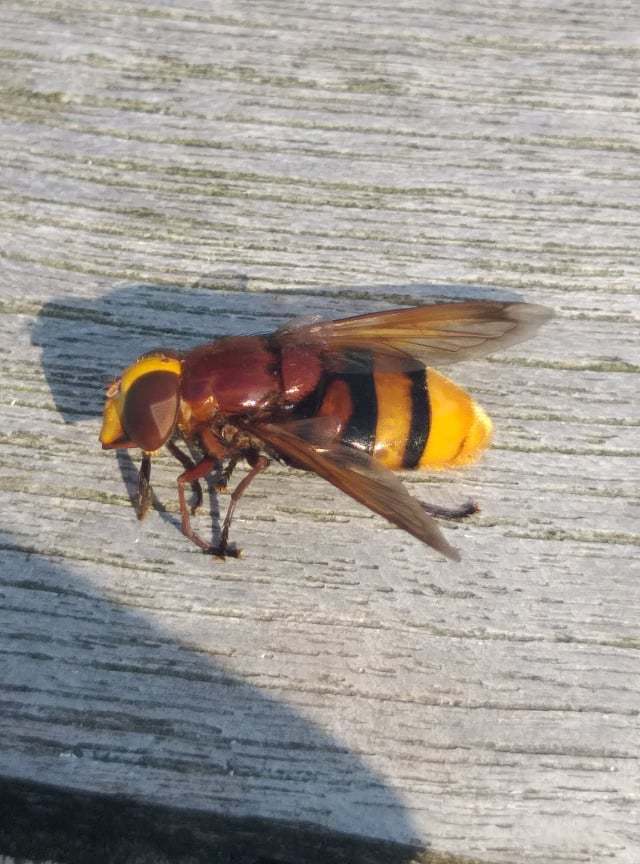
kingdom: Animalia
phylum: Arthropoda
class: Insecta
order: Diptera
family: Syrphidae
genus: Volucella
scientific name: Volucella zonaria
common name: Hornet hoverfly
